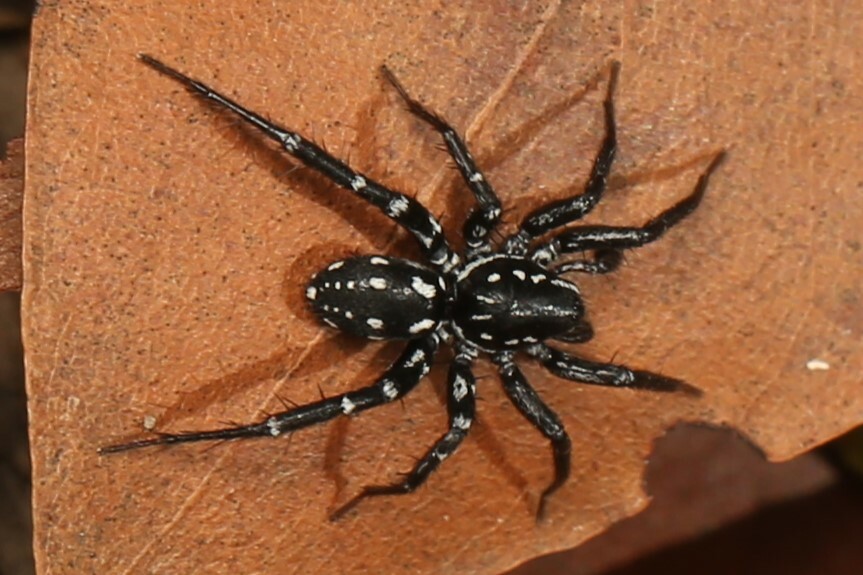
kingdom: Animalia
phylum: Arthropoda
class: Arachnida
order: Araneae
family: Corinnidae
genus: Nyssus
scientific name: Nyssus albopunctatus
